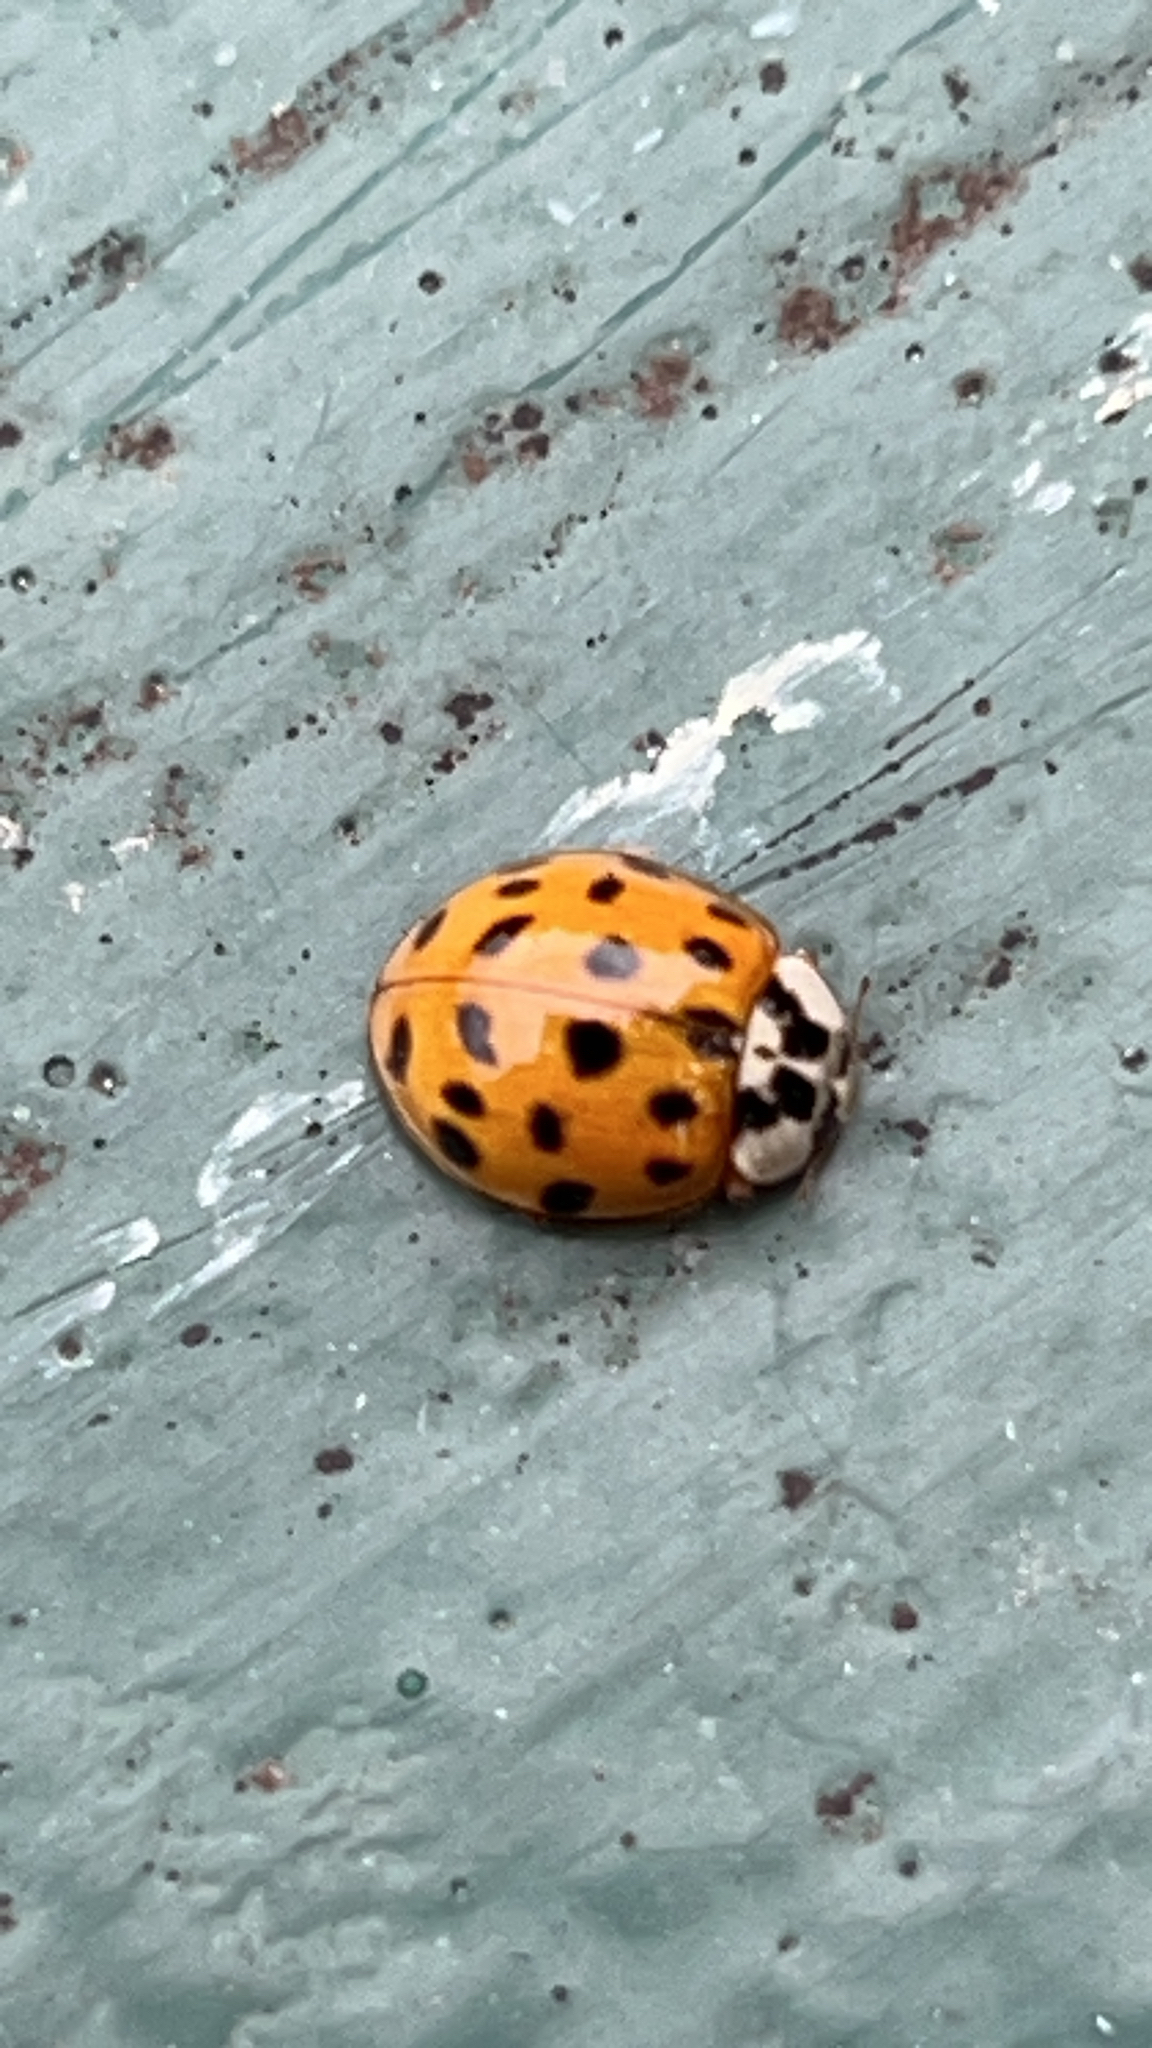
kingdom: Animalia
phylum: Arthropoda
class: Insecta
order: Coleoptera
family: Coccinellidae
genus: Harmonia
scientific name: Harmonia axyridis
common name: Harlequin ladybird
